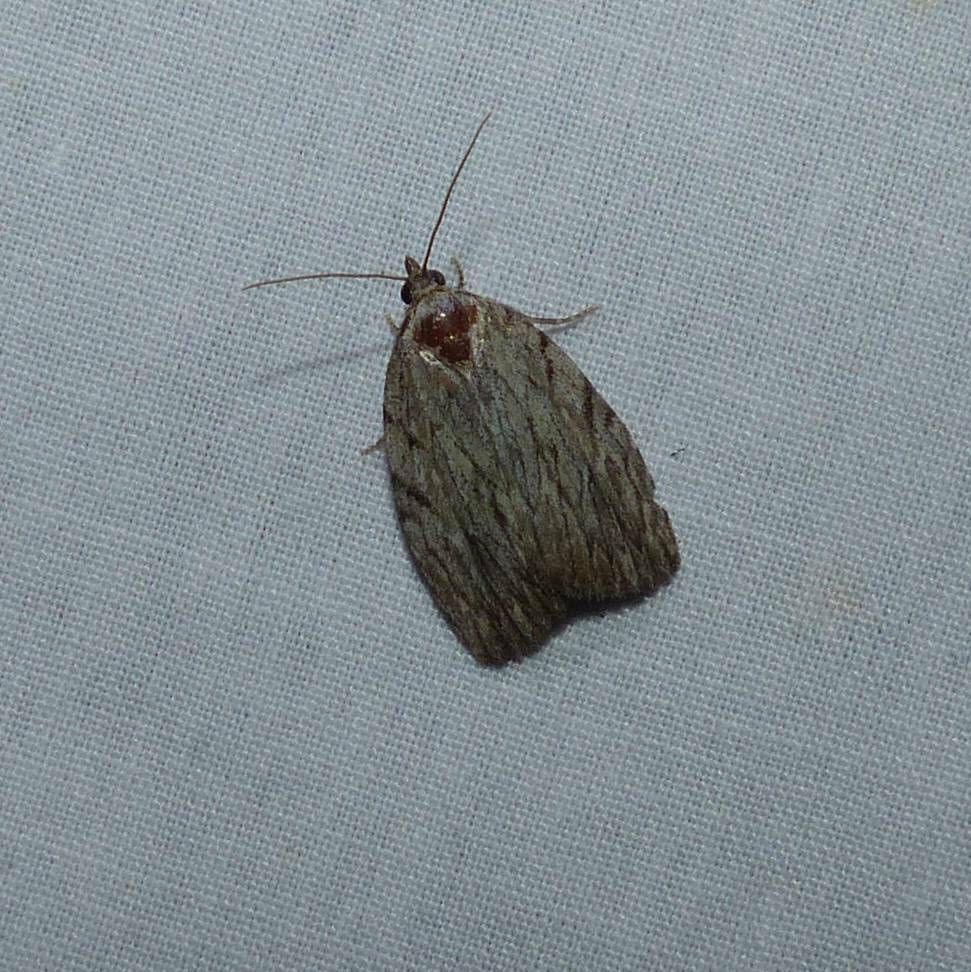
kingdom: Animalia
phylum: Arthropoda
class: Insecta
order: Lepidoptera
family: Noctuidae
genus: Balsa
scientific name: Balsa tristrigella
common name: Three-lined balsa moth
